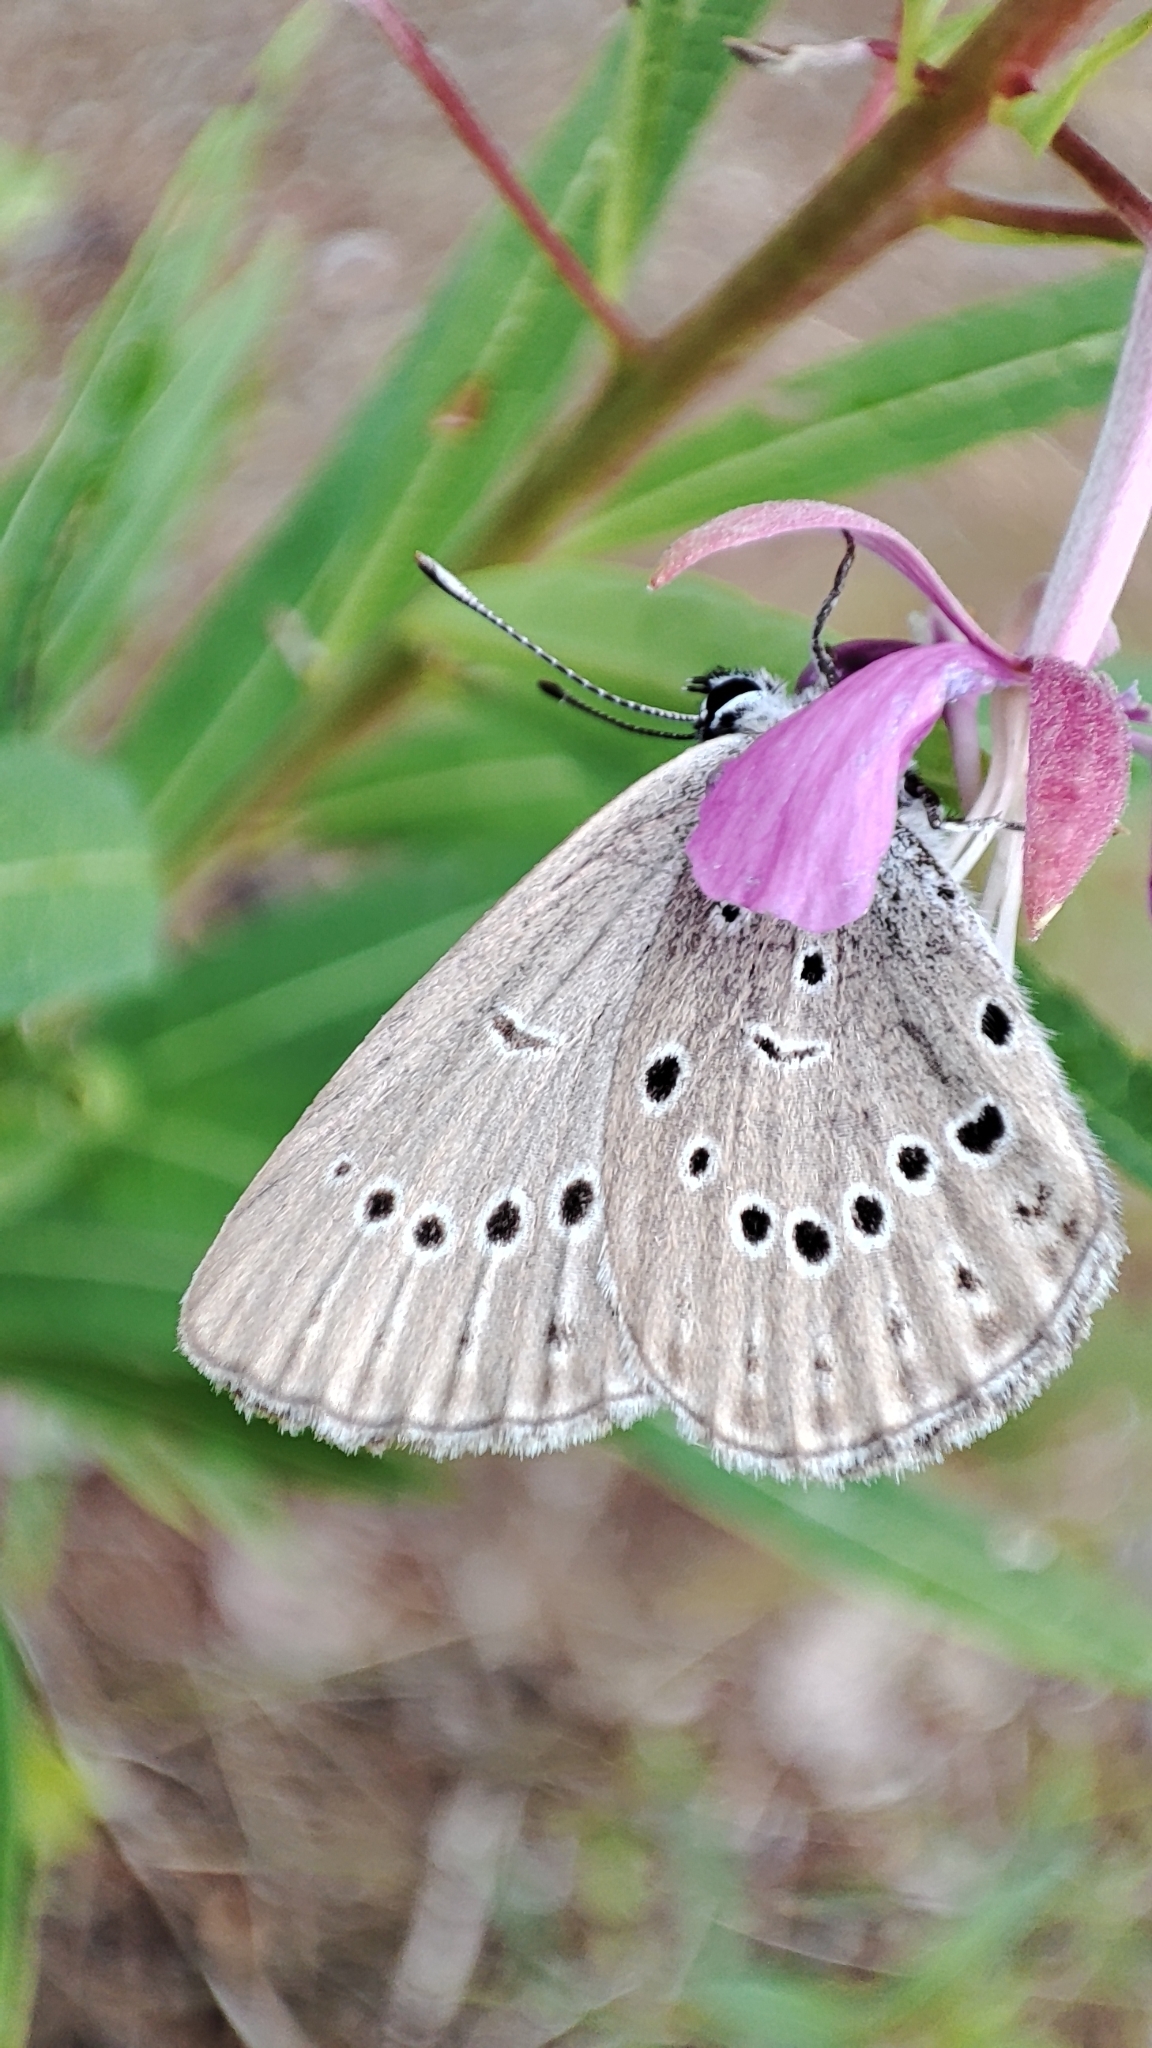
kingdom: Animalia
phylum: Arthropoda
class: Insecta
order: Lepidoptera
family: Lycaenidae
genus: Phengaris
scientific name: Phengaris teleius
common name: Scarce large blue
